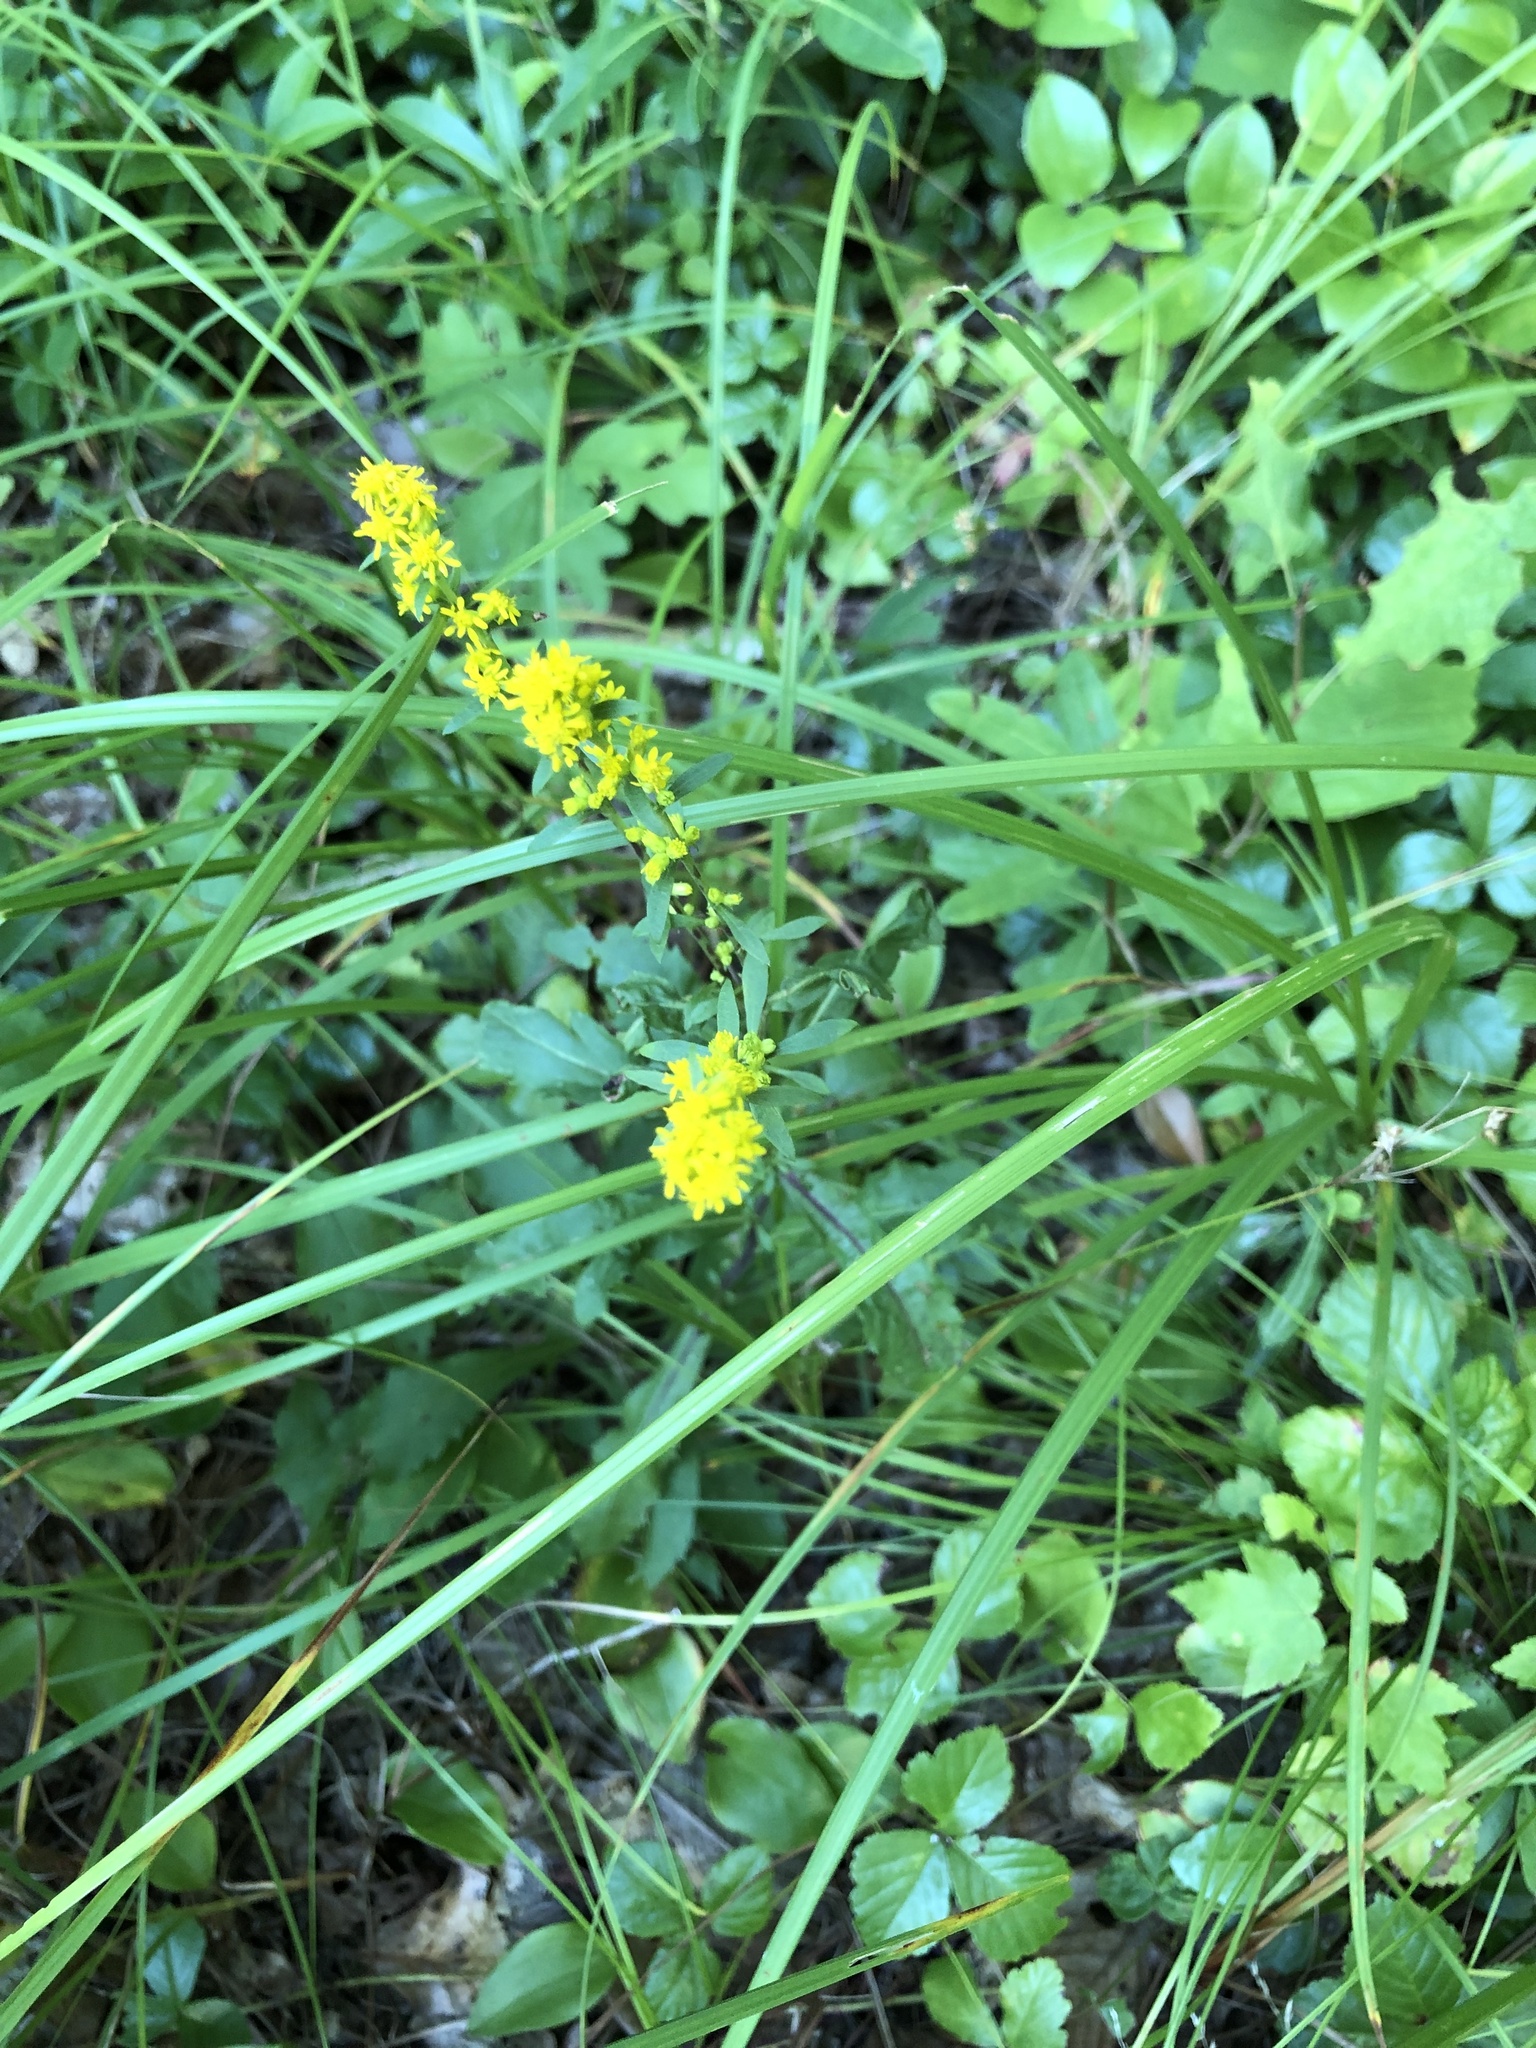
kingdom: Plantae
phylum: Tracheophyta
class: Magnoliopsida
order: Asterales
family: Asteraceae
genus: Solidago
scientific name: Solidago caesia
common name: Woodland goldenrod
